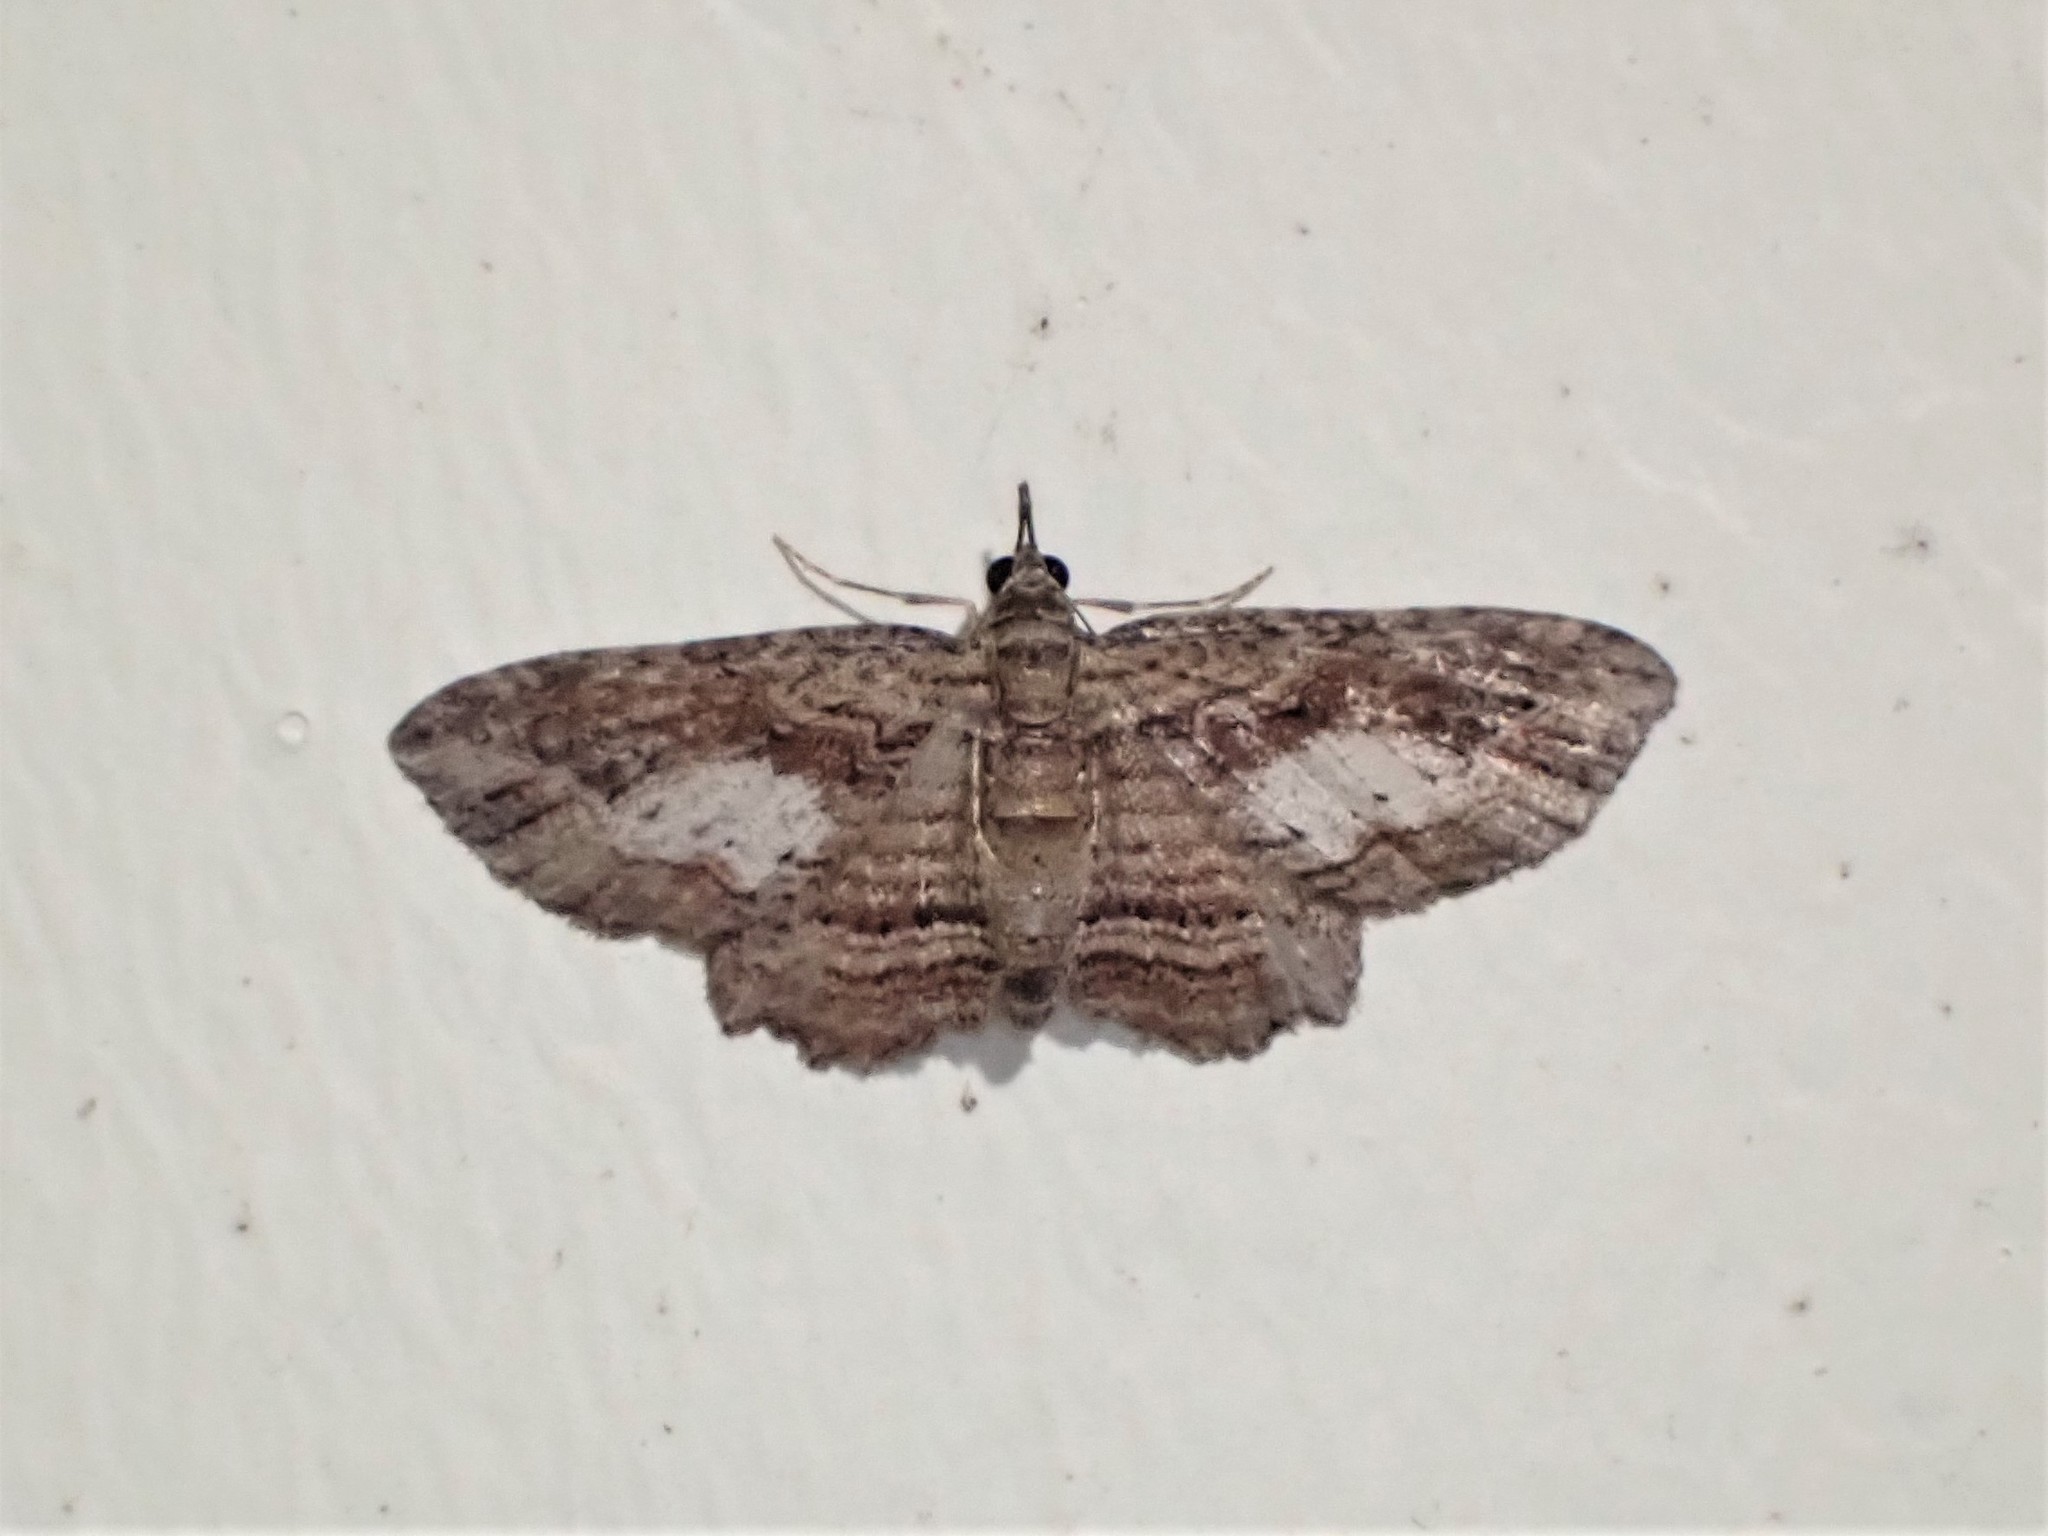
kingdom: Animalia
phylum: Arthropoda
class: Insecta
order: Lepidoptera
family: Geometridae
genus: Chloroclystis
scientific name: Chloroclystis filata
